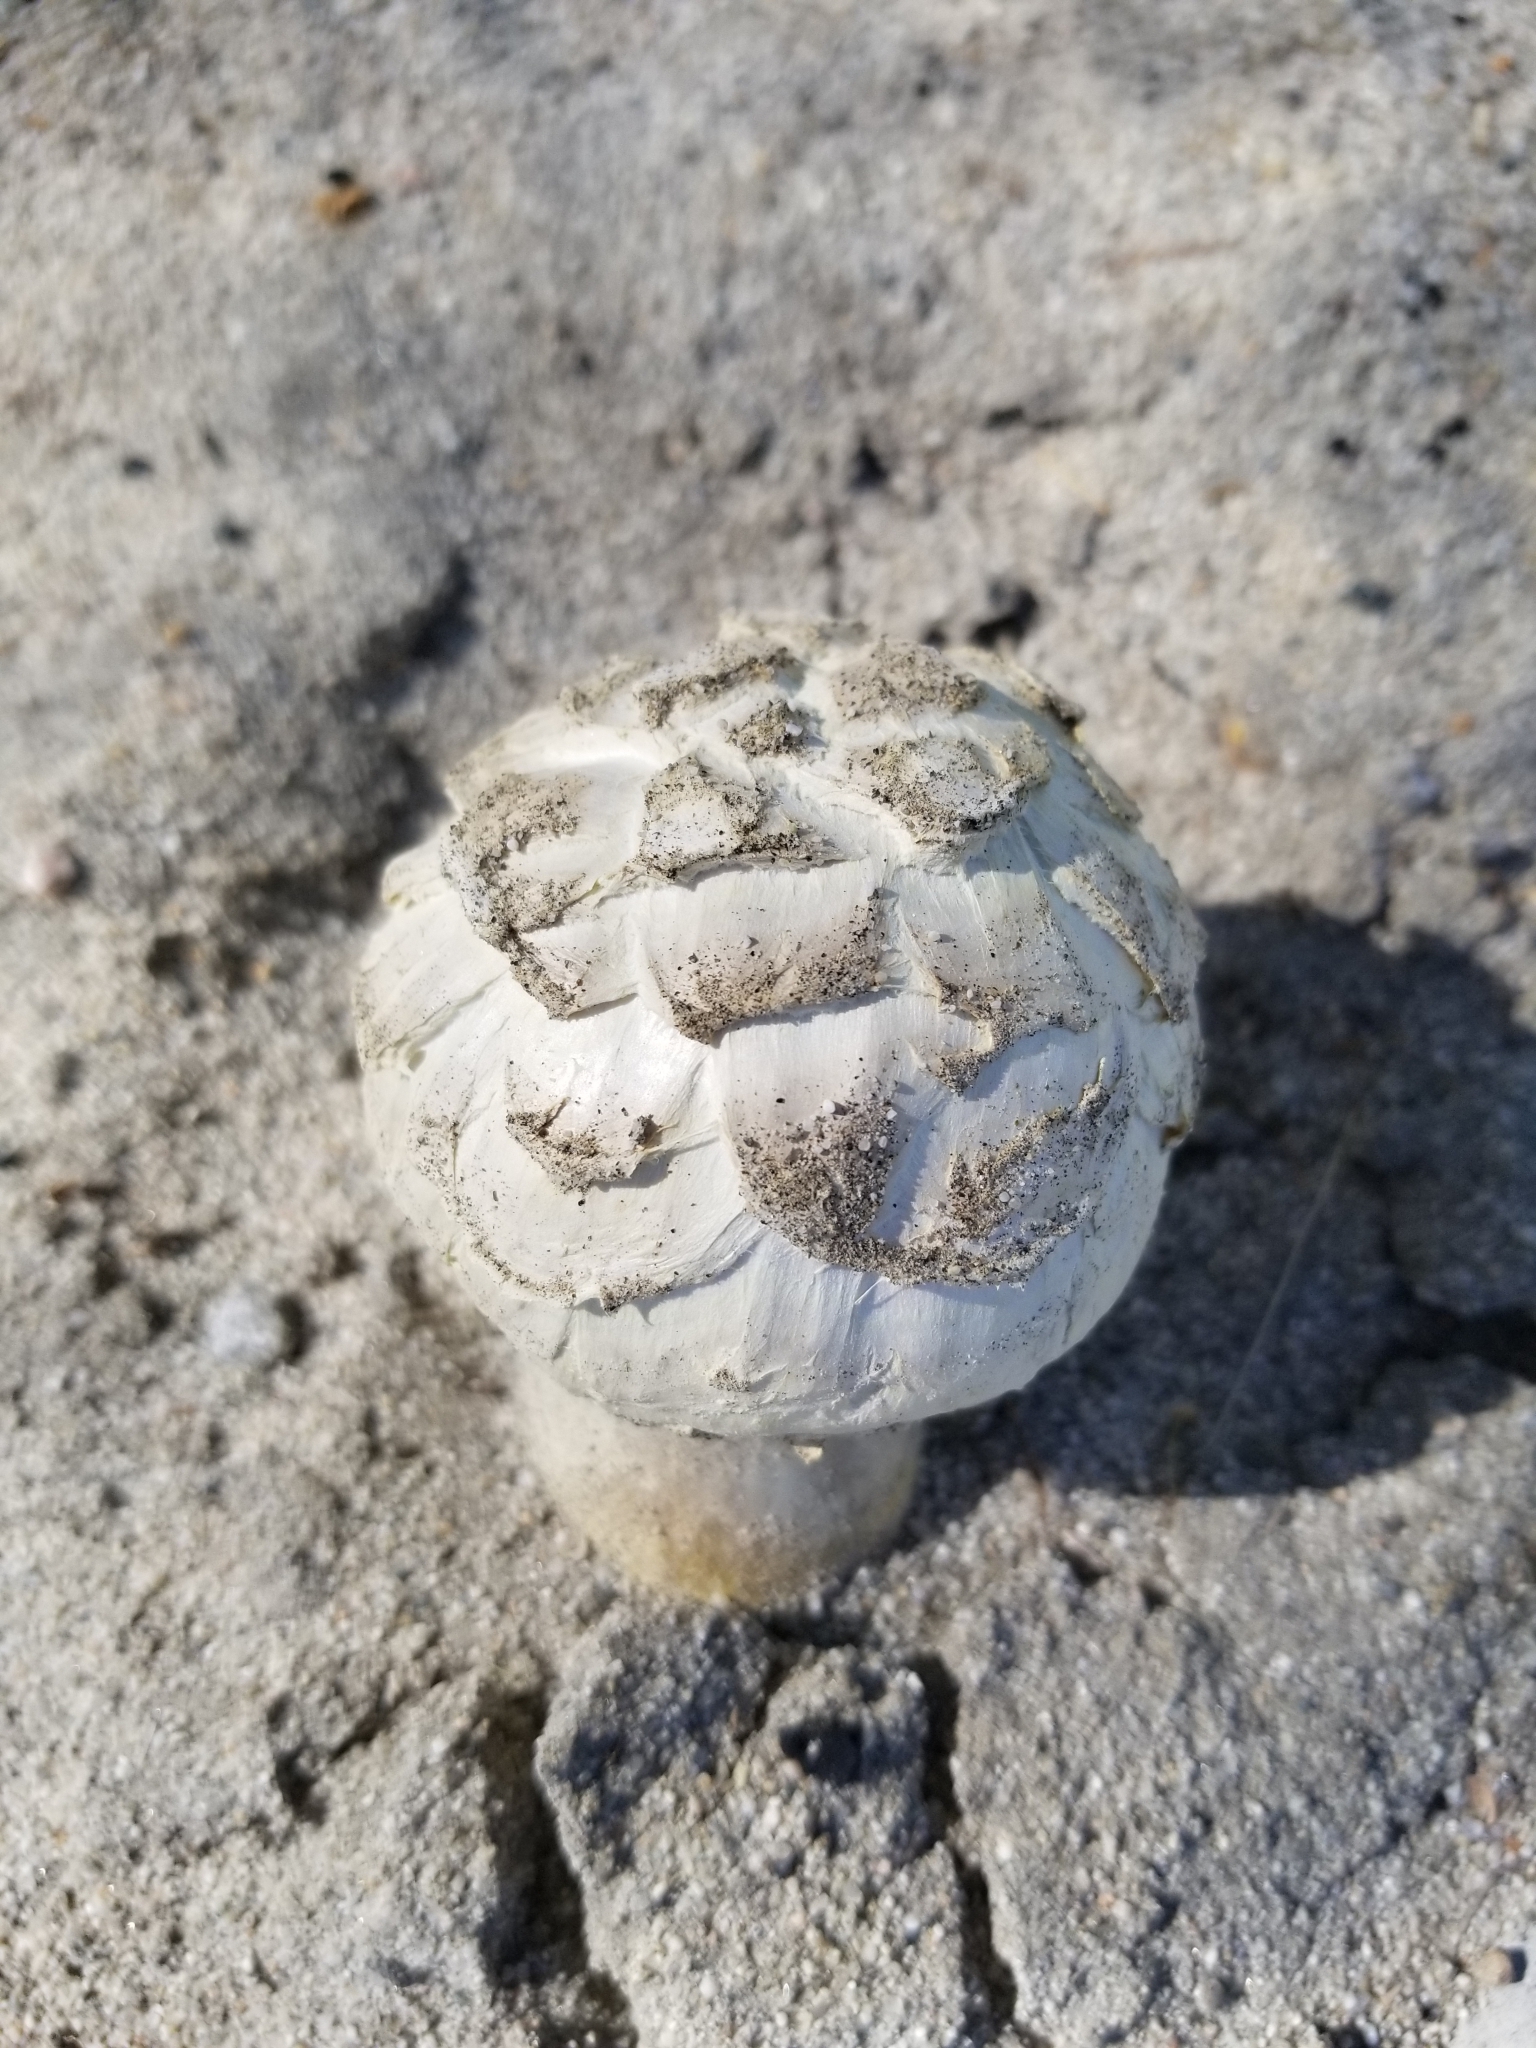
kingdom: Fungi
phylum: Basidiomycota
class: Agaricomycetes
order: Agaricales
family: Agaricaceae
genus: Agaricus
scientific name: Agaricus deserticola
